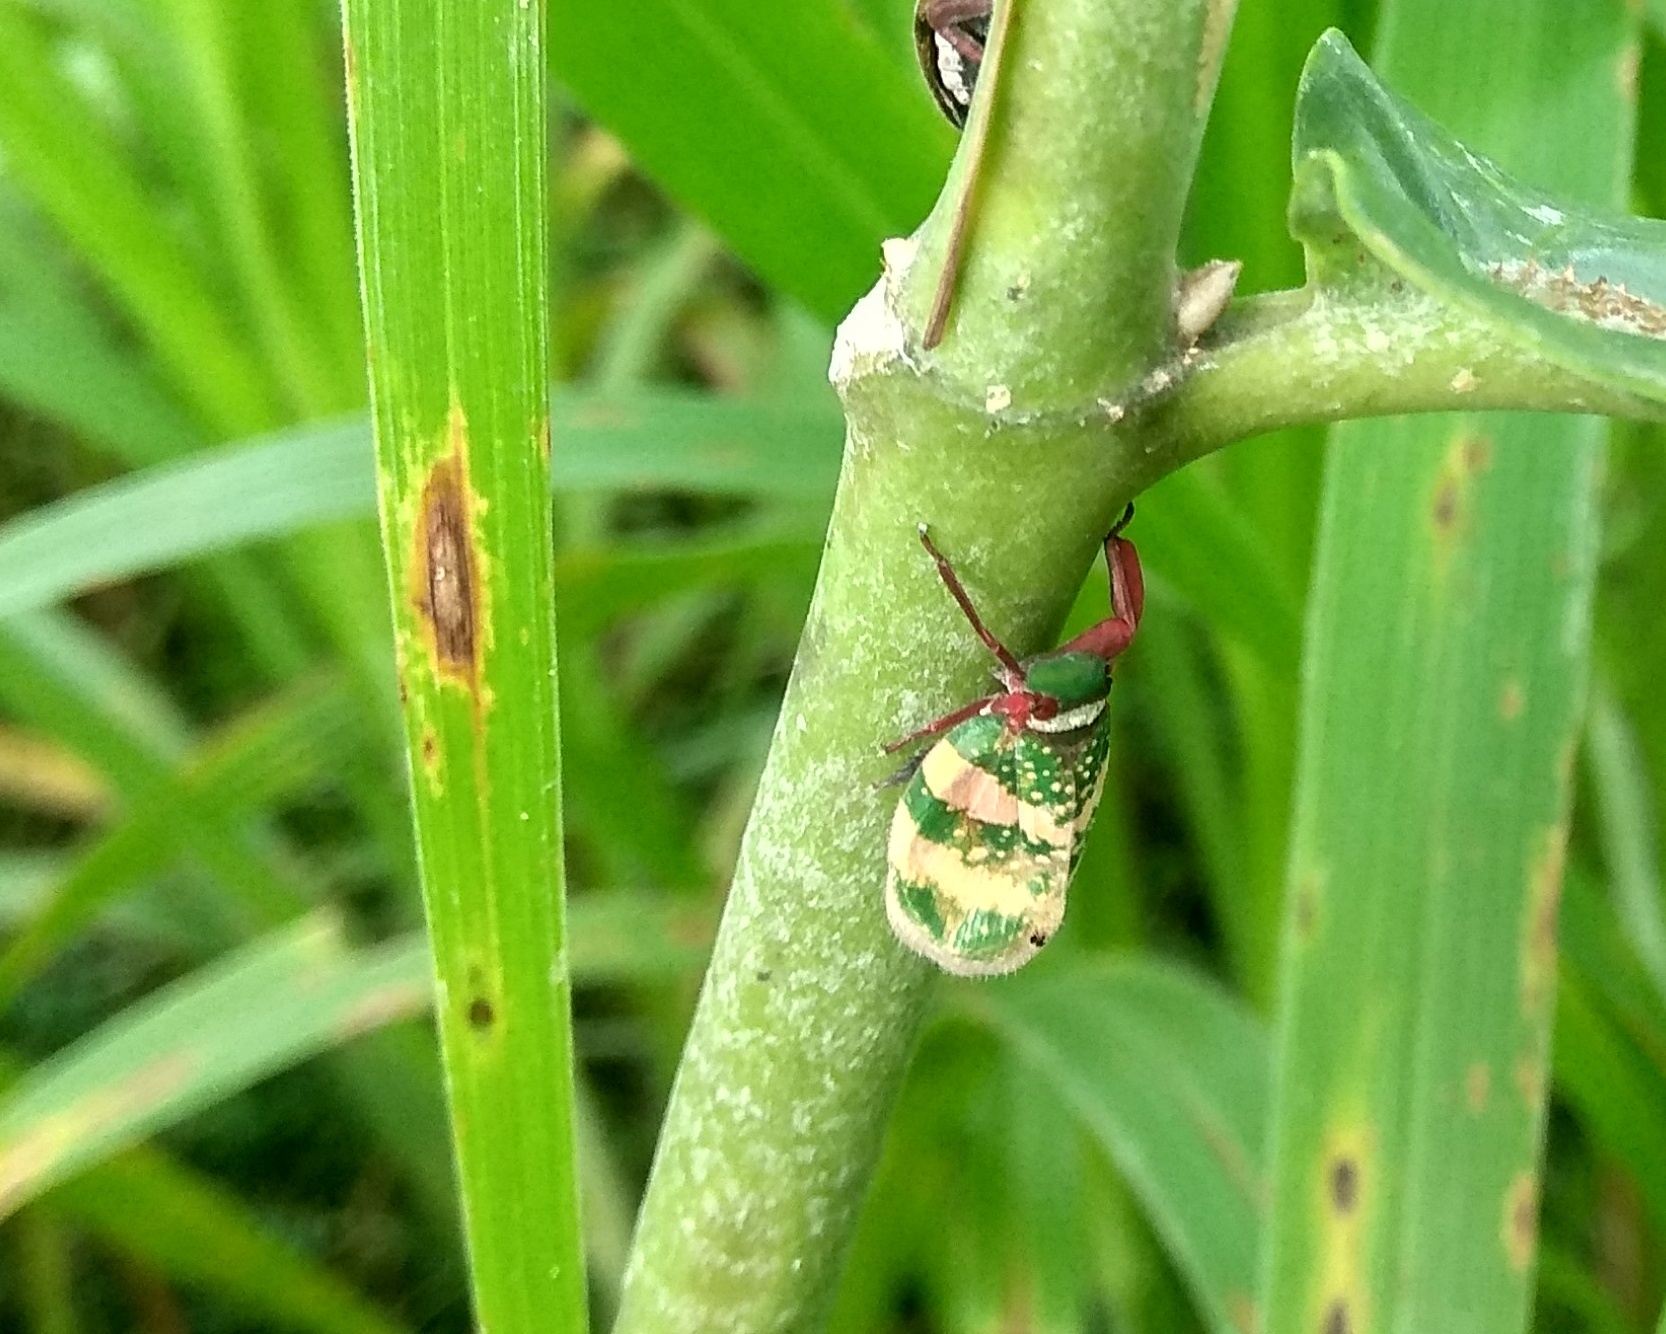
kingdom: Animalia
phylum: Arthropoda
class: Insecta
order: Hemiptera
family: Eurybrachidae
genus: Eurybrachys
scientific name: Eurybrachys tomentosa
